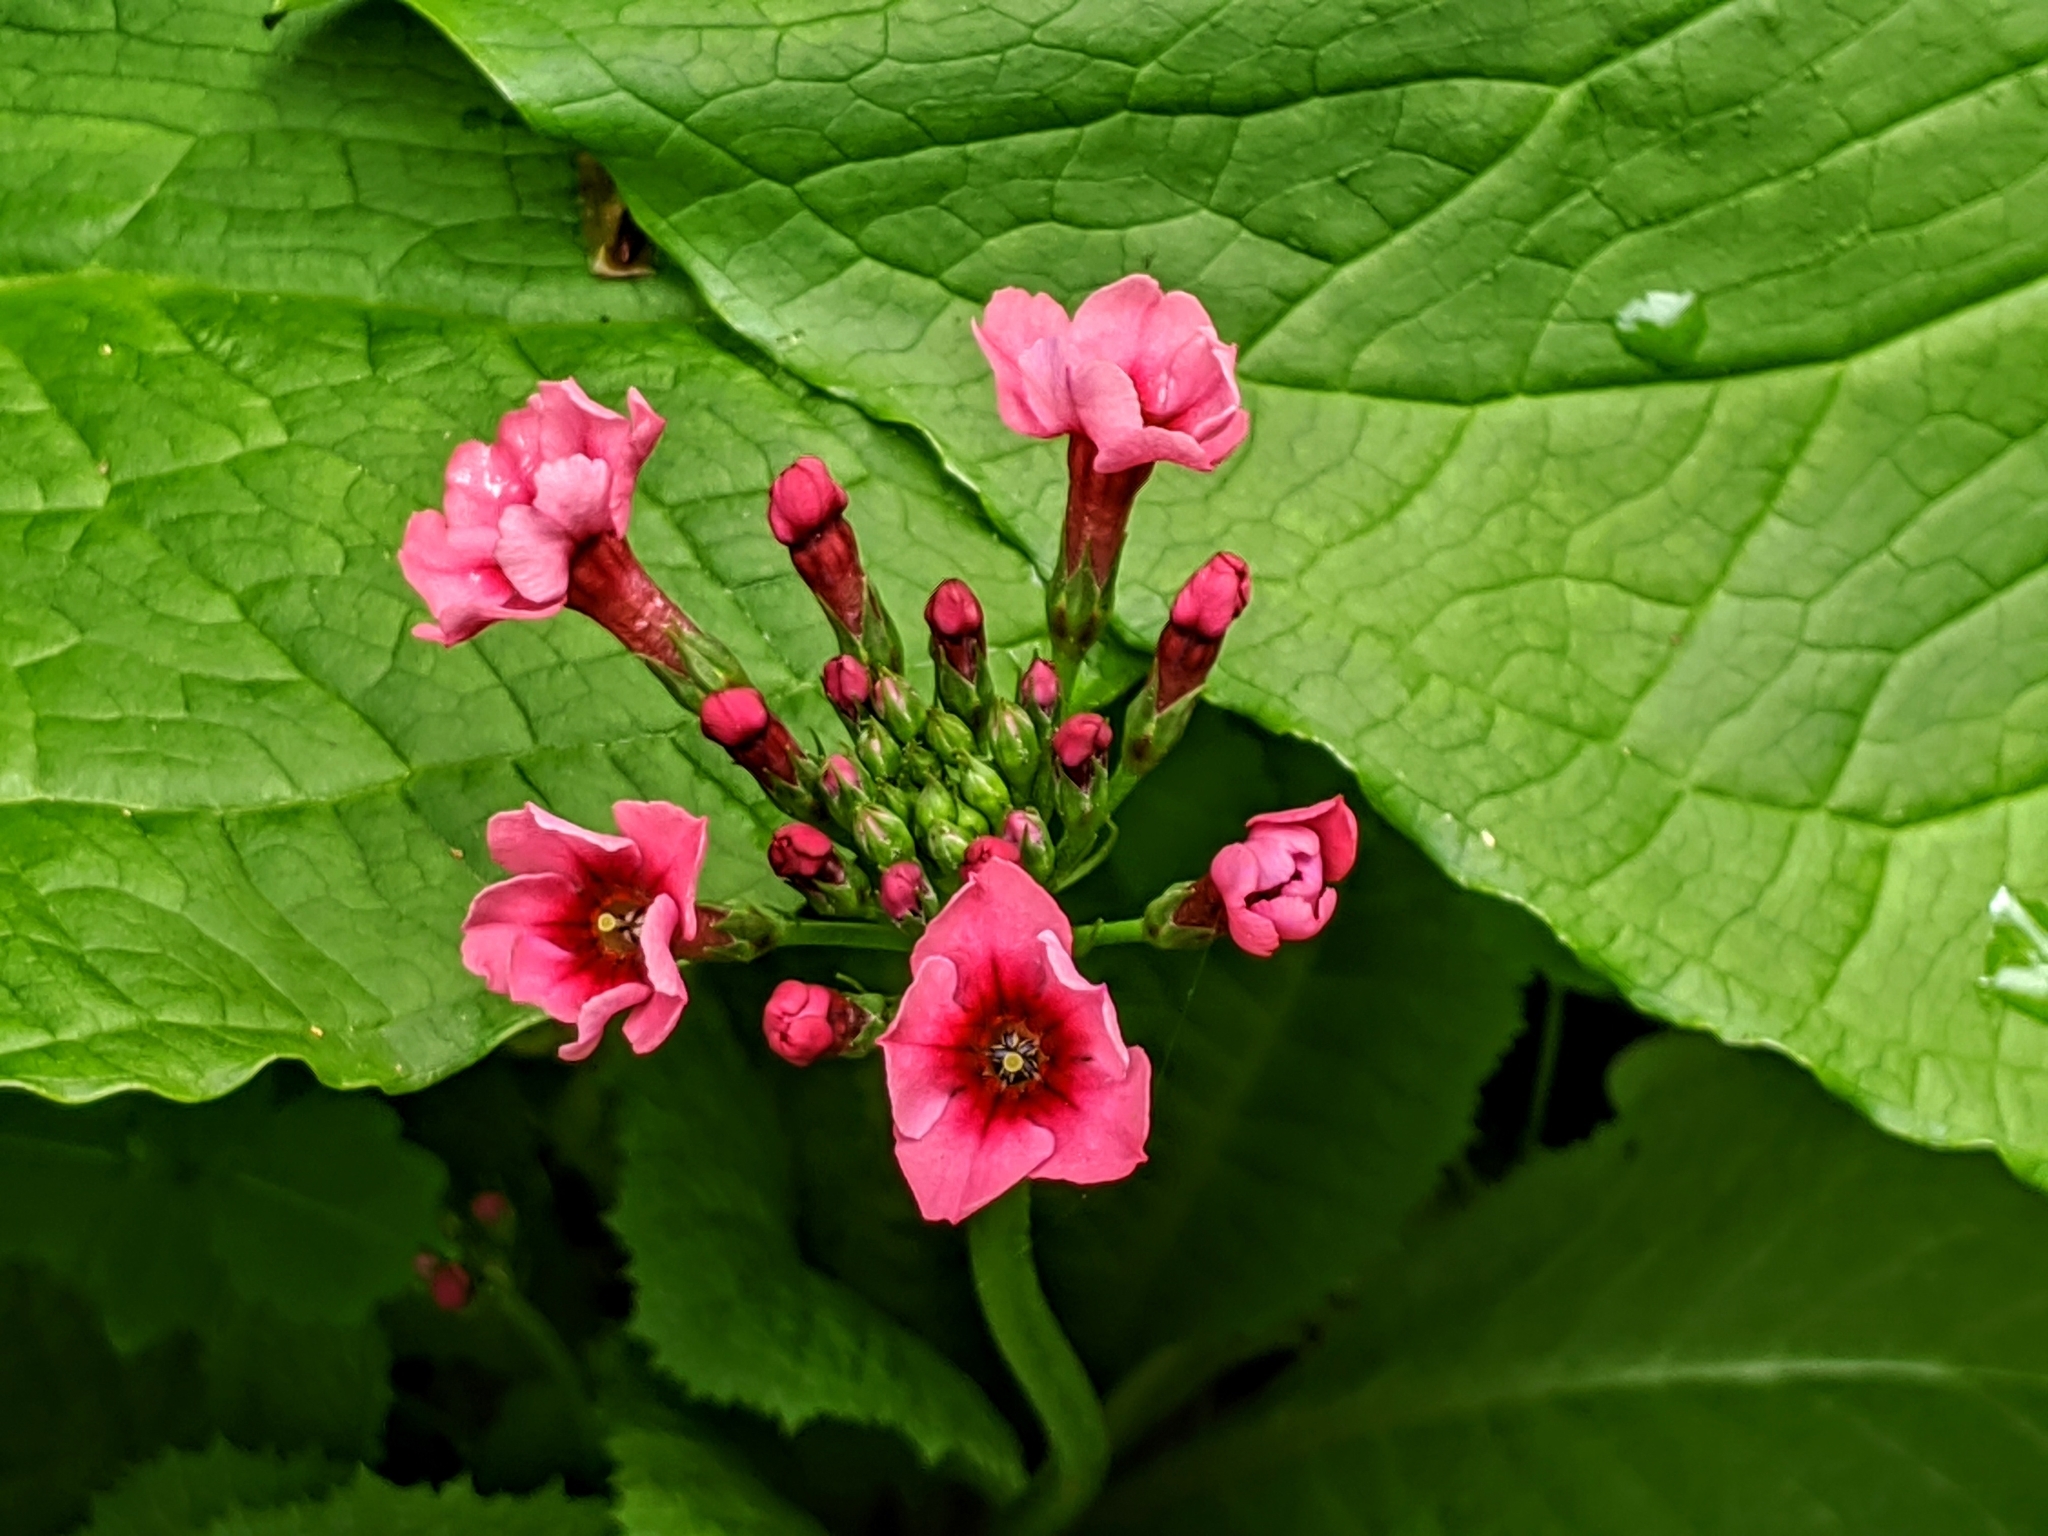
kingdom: Plantae
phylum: Tracheophyta
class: Magnoliopsida
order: Ericales
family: Primulaceae
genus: Primula
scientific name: Primula japonica
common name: Japanese cowslip
